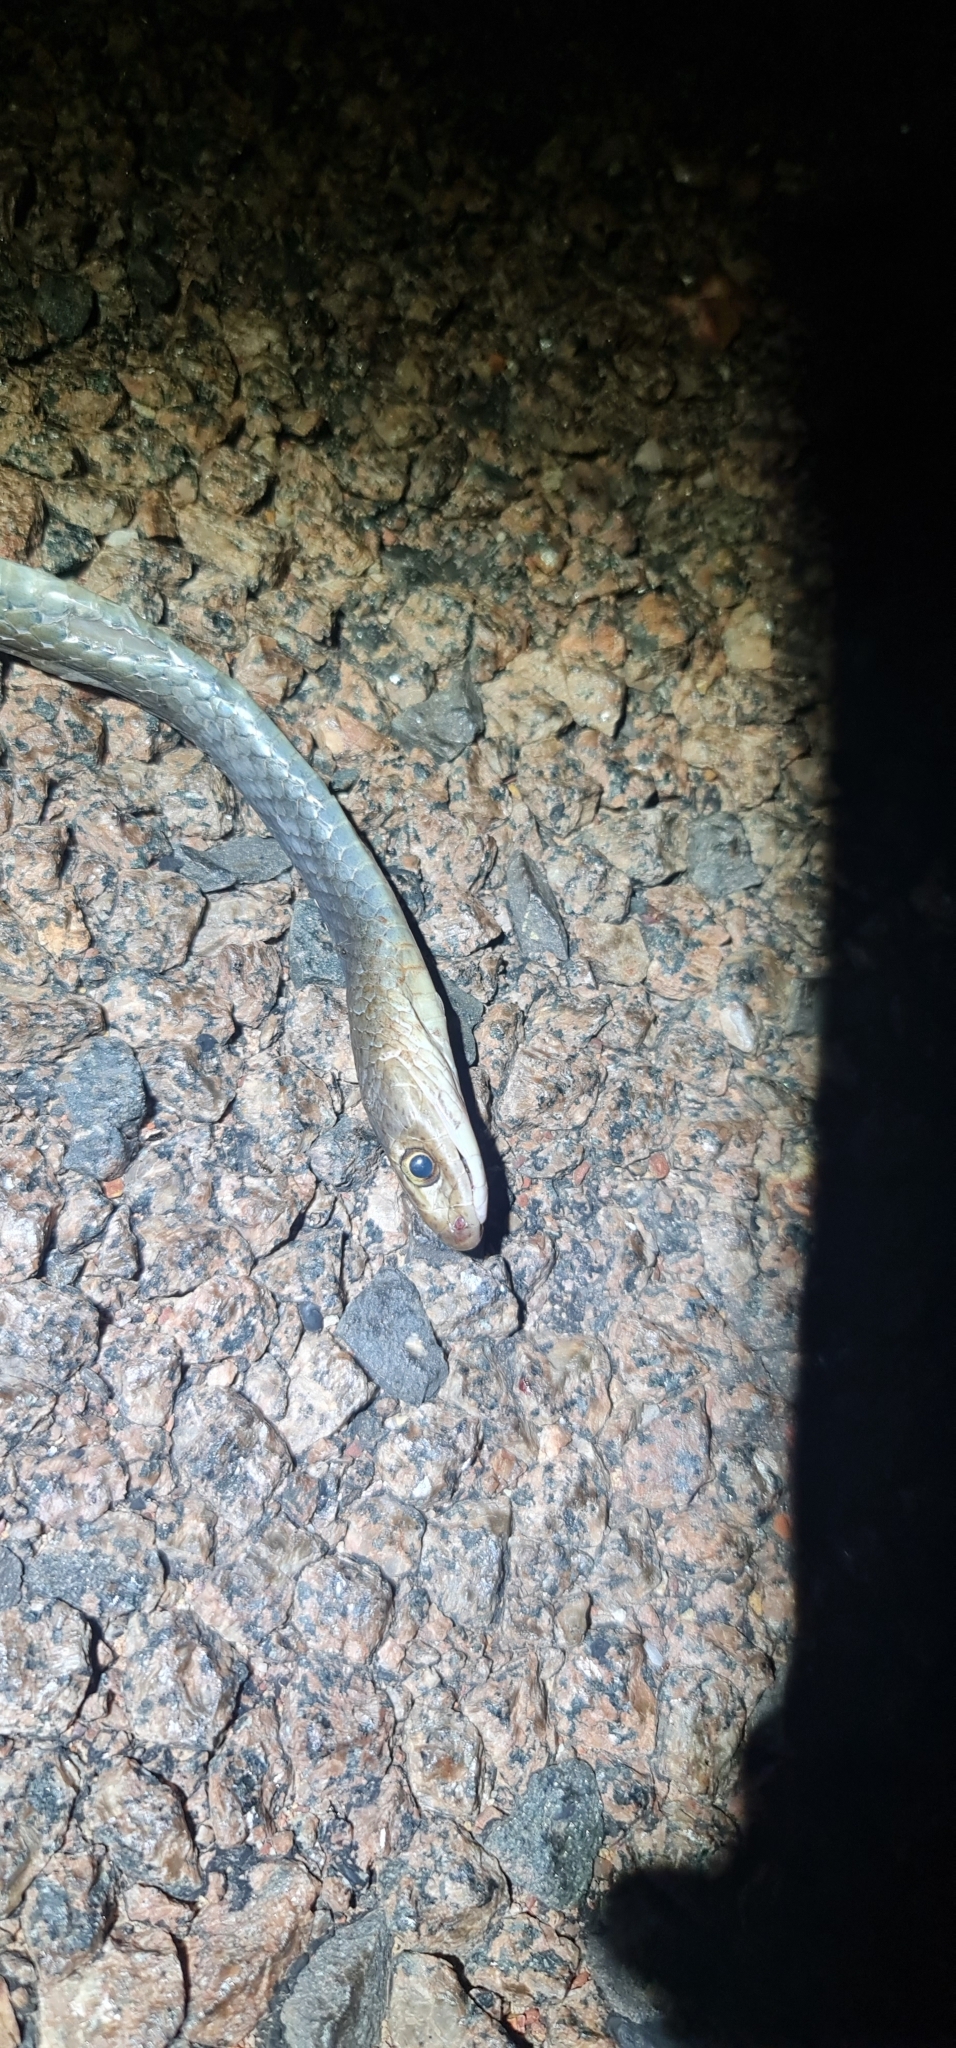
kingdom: Animalia
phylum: Chordata
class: Squamata
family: Elapidae
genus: Demansia
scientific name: Demansia papuensis
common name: Papuan whip snake
